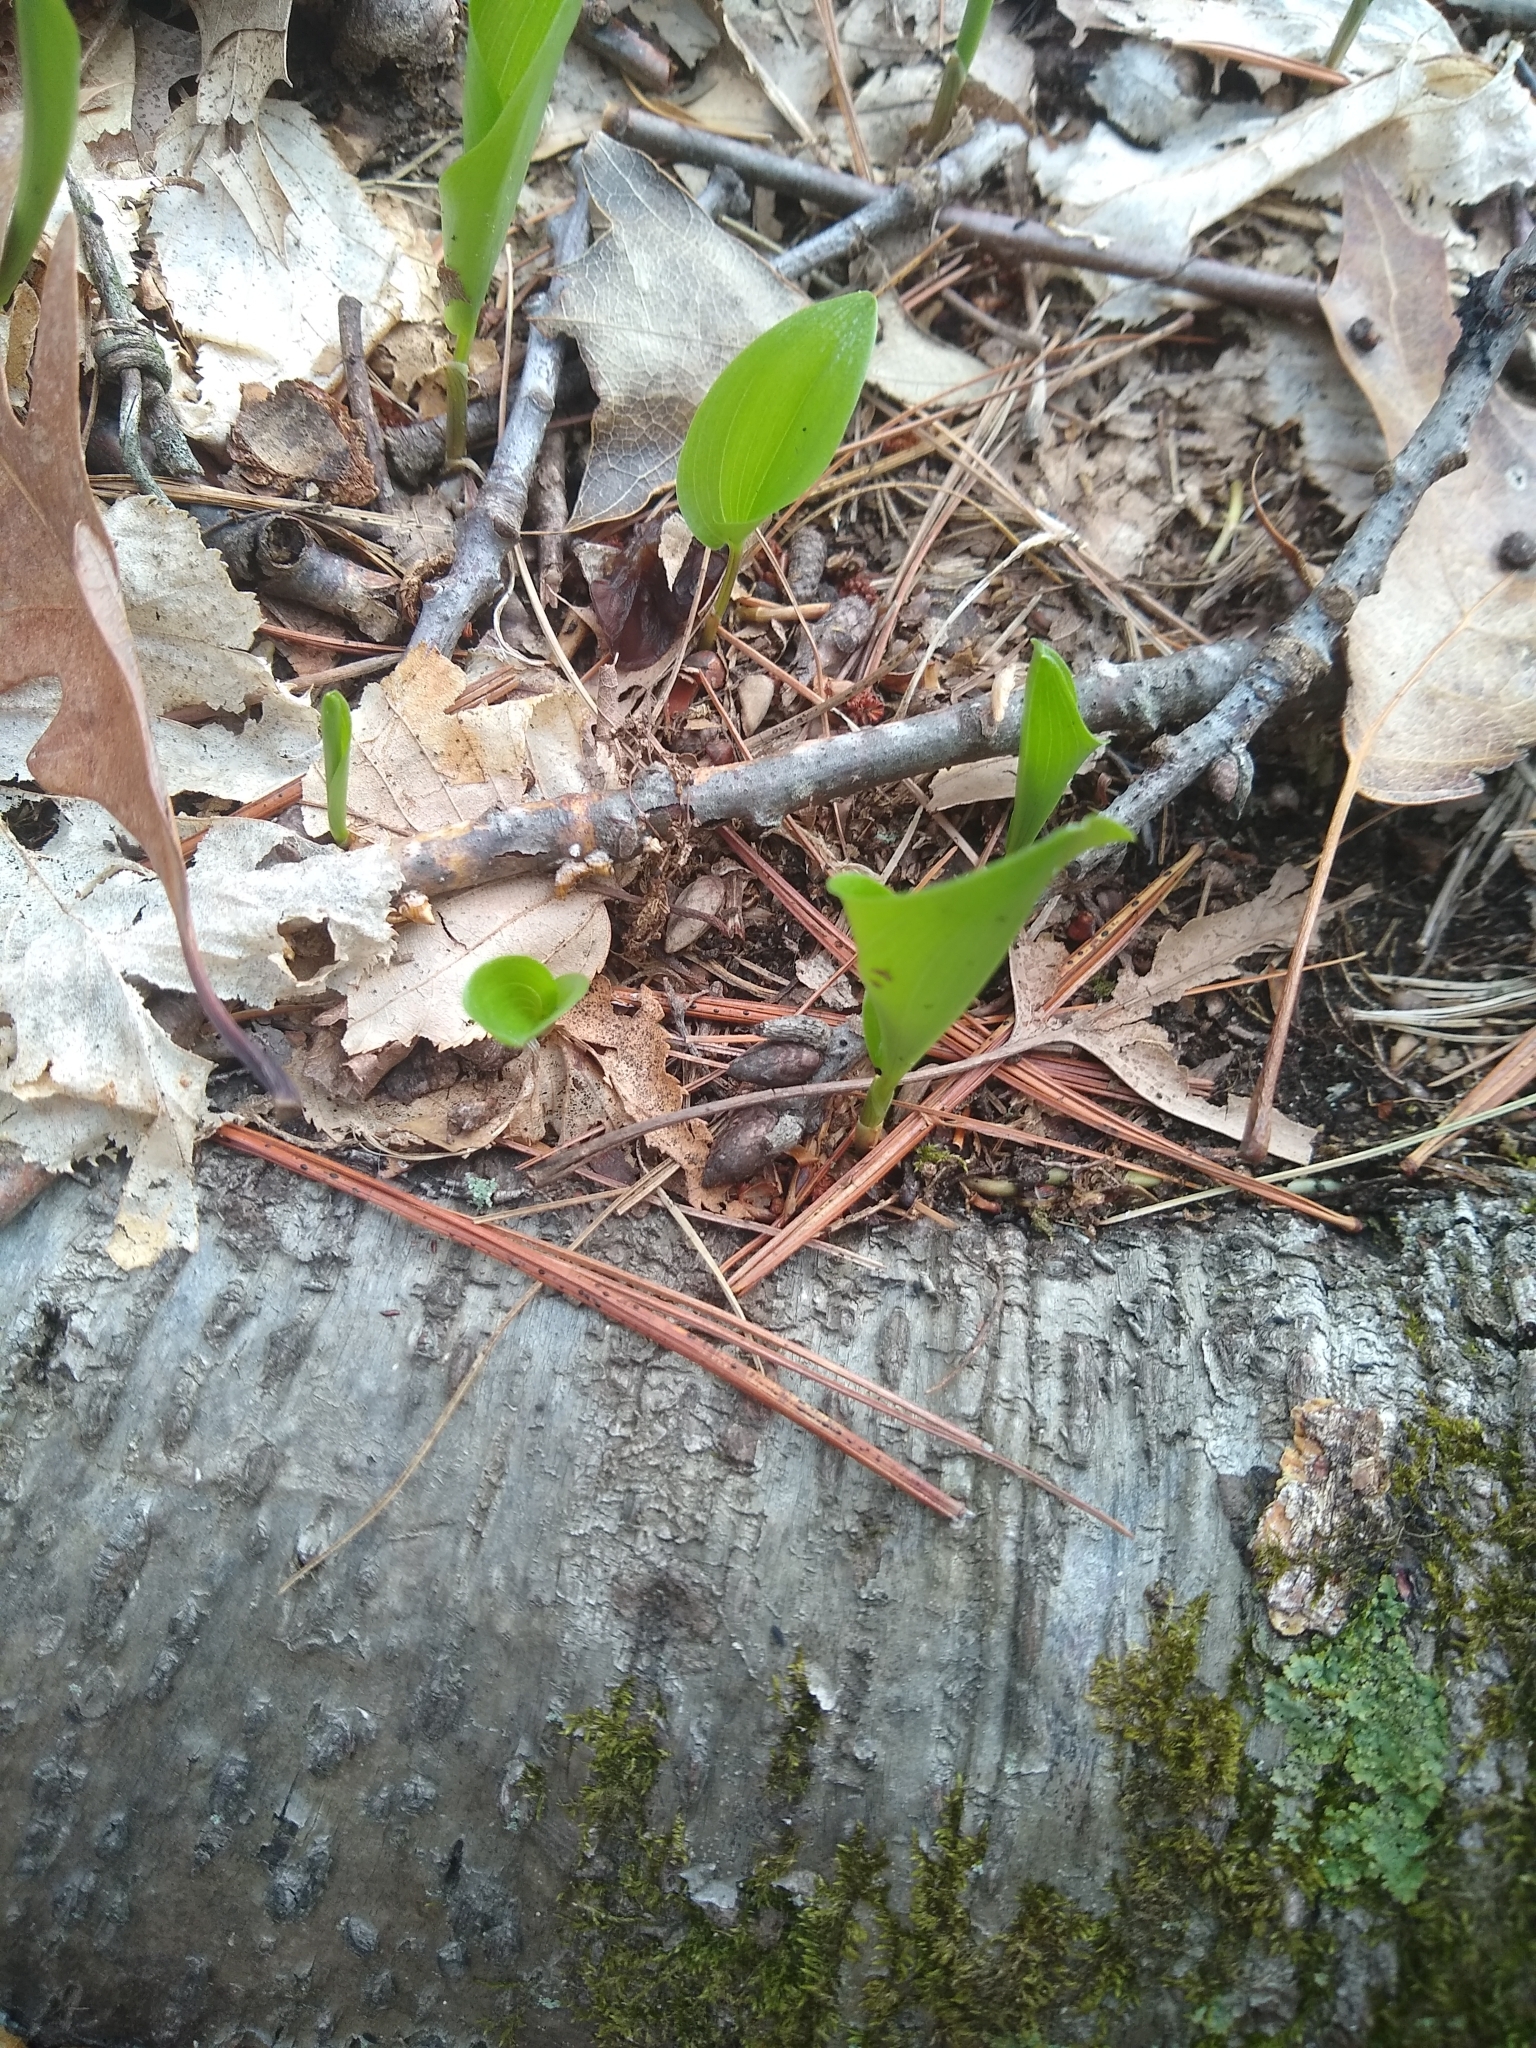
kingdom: Plantae
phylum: Tracheophyta
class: Liliopsida
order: Asparagales
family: Asparagaceae
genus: Maianthemum
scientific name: Maianthemum canadense
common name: False lily-of-the-valley
